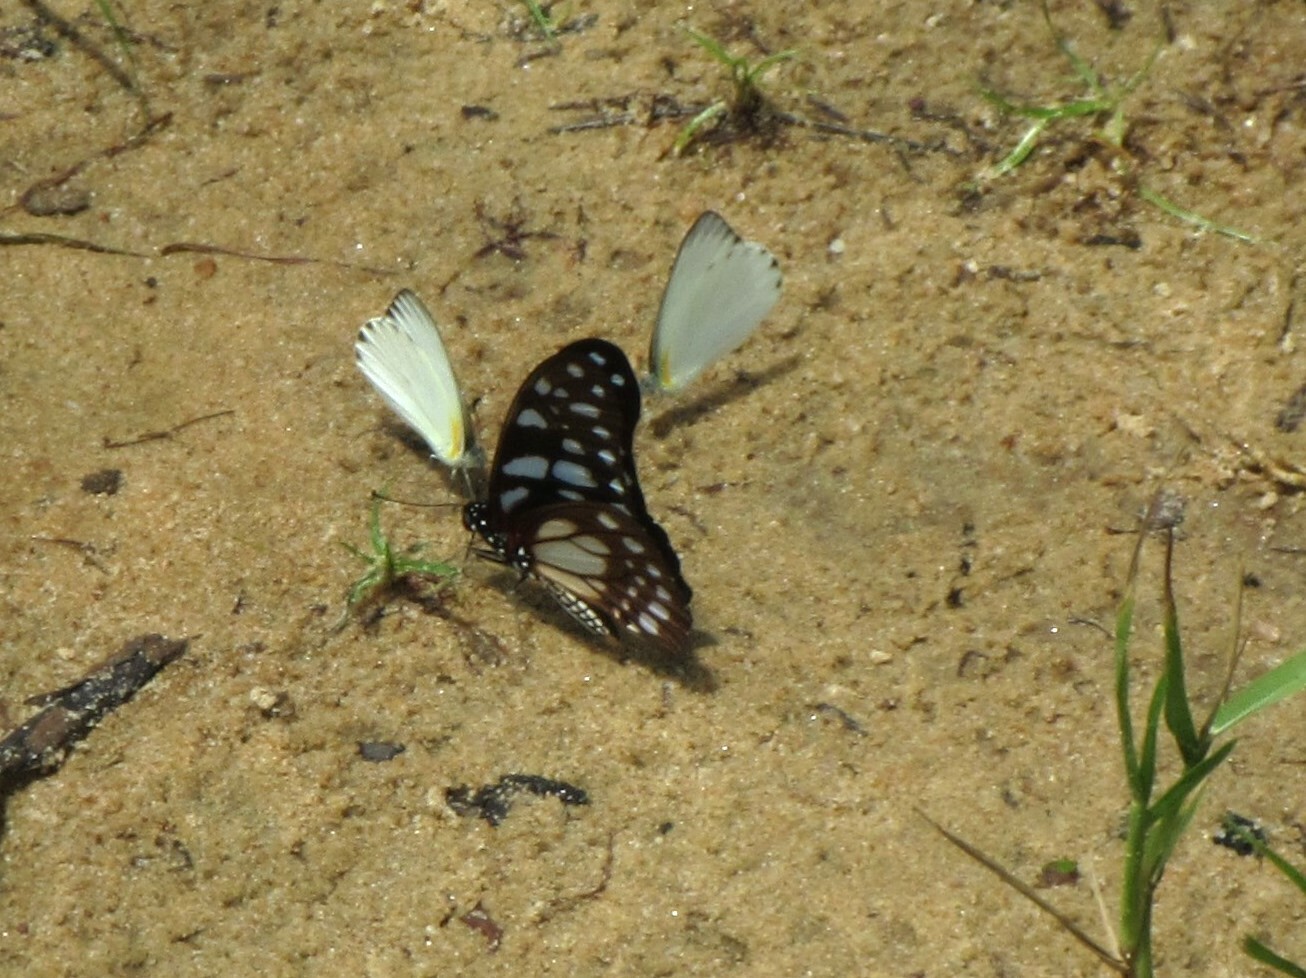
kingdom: Animalia
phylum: Arthropoda
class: Insecta
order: Lepidoptera
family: Papilionidae
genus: Graphium
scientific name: Graphium leonidas
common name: Common graphium
